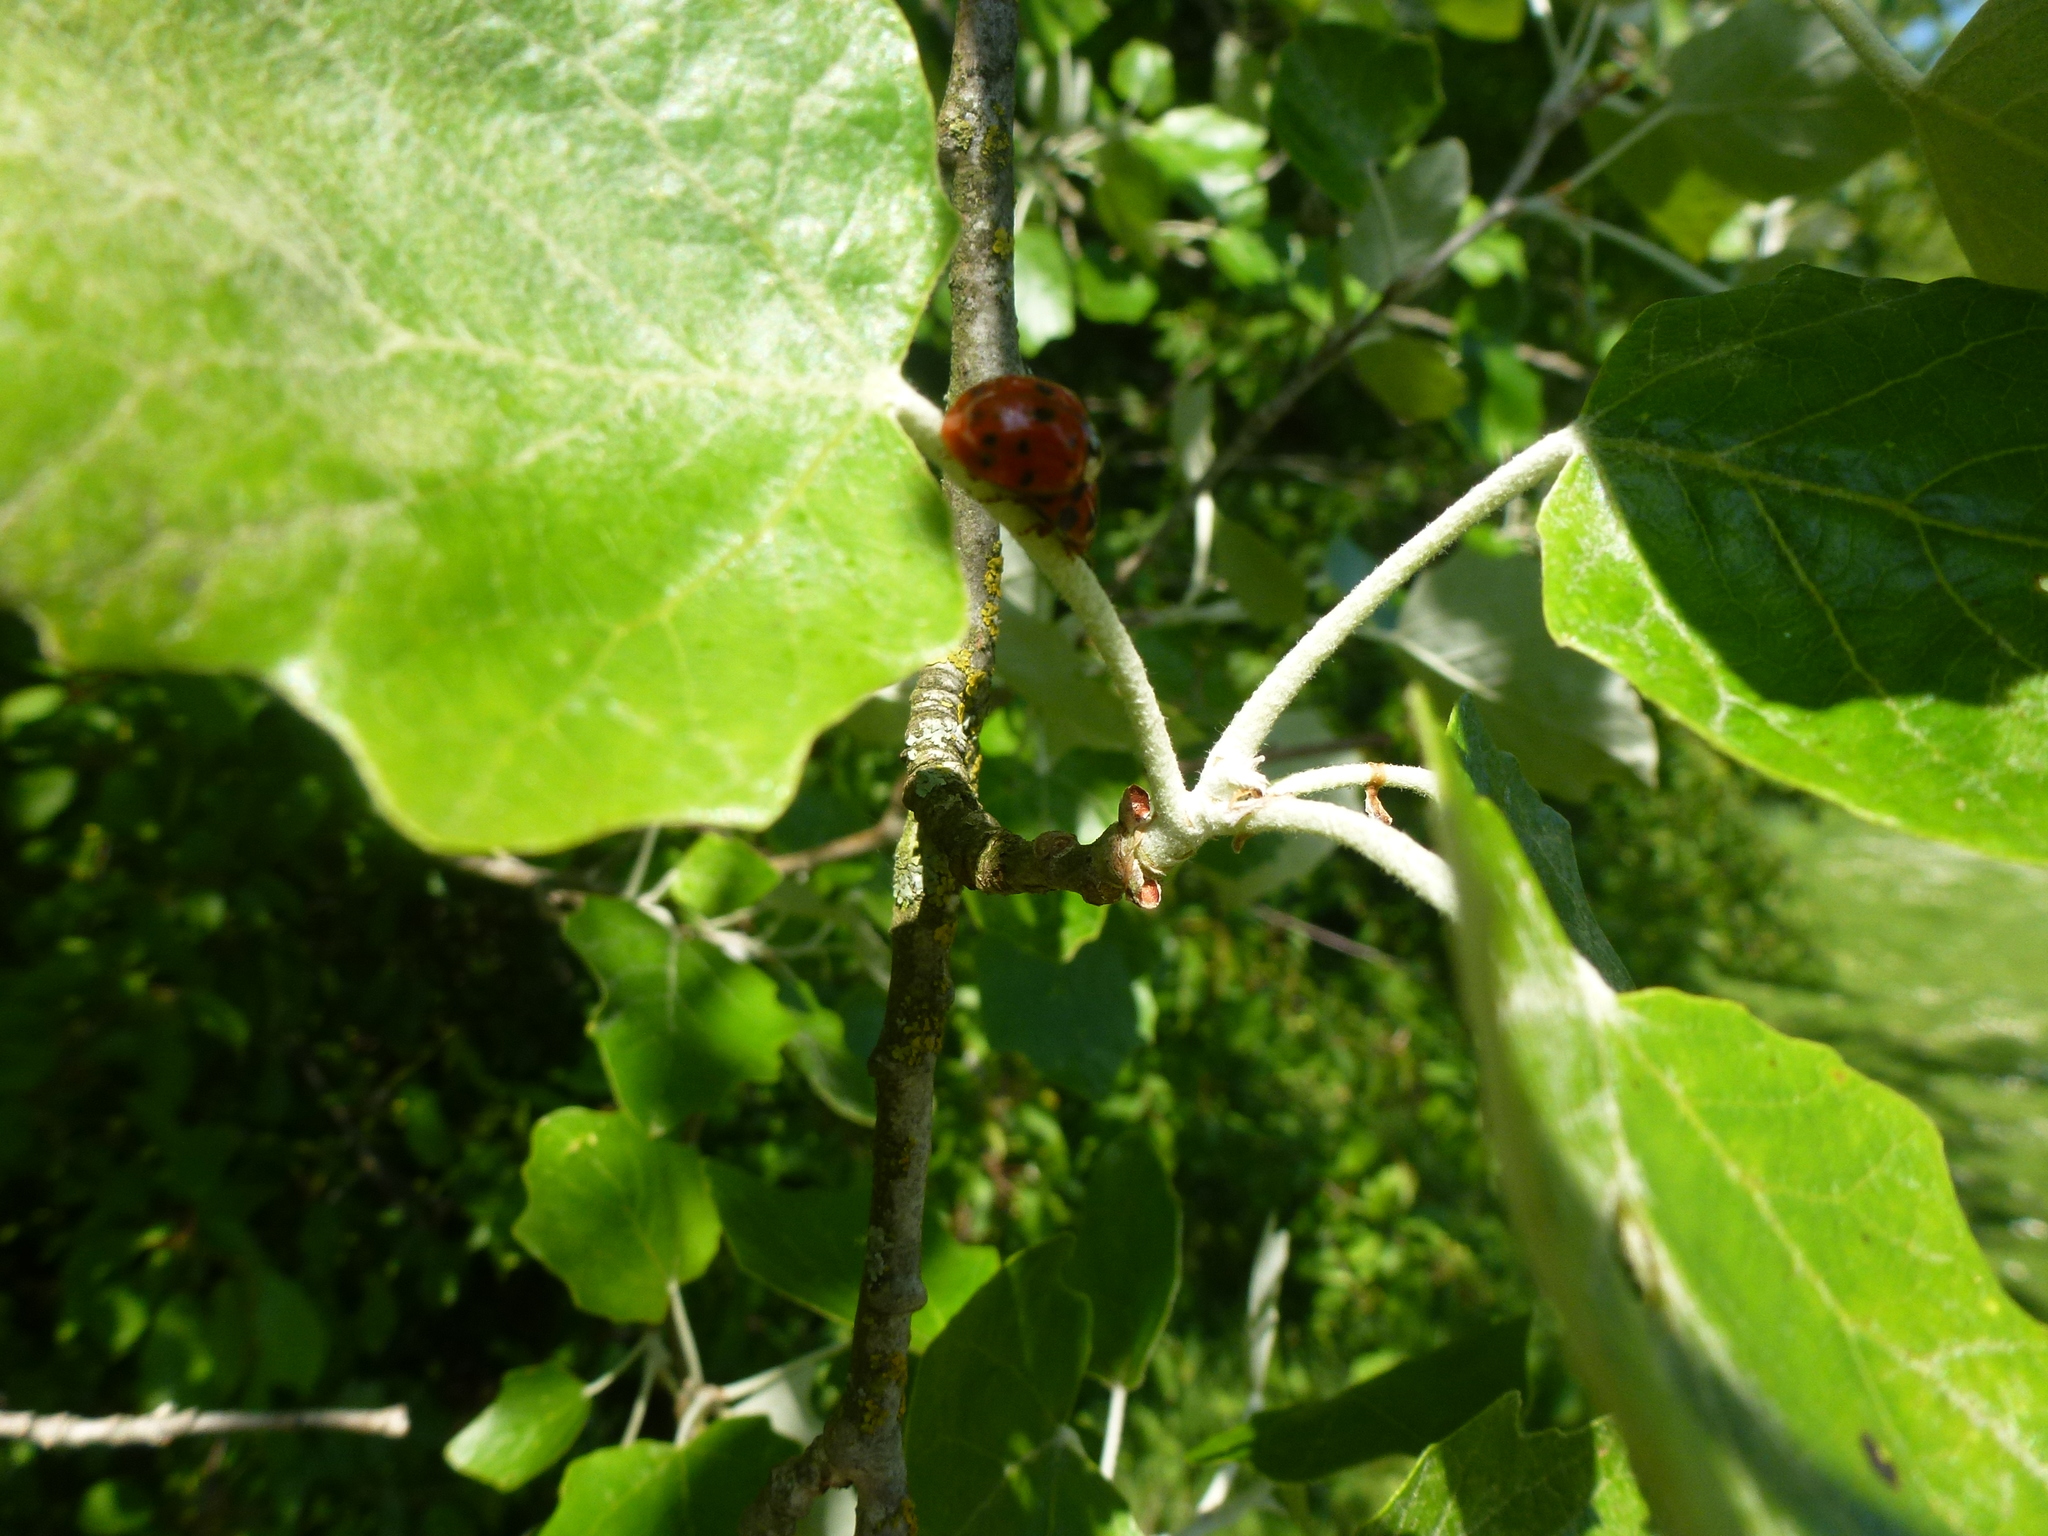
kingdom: Animalia
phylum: Arthropoda
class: Insecta
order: Coleoptera
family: Coccinellidae
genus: Harmonia
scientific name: Harmonia axyridis
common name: Harlequin ladybird
